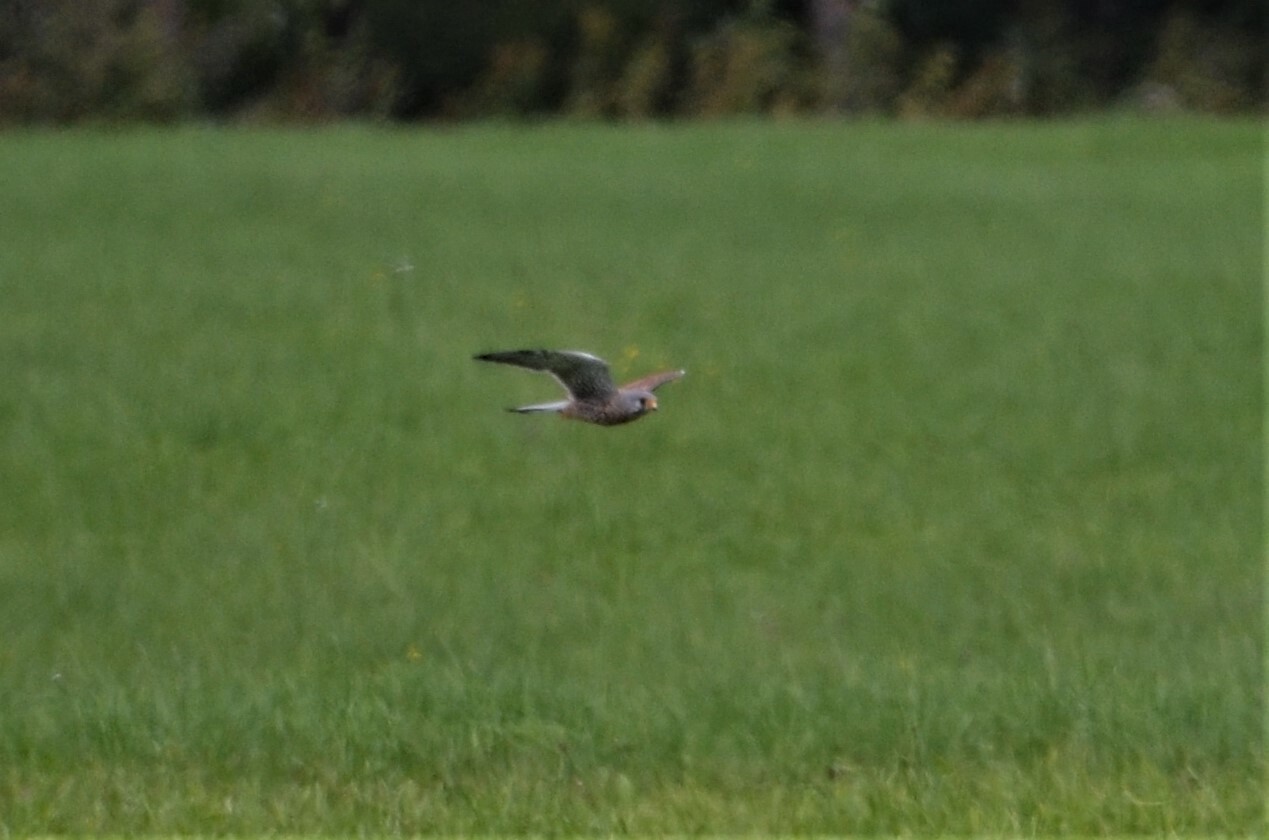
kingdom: Animalia
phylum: Chordata
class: Aves
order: Falconiformes
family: Falconidae
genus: Falco
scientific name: Falco tinnunculus
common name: Common kestrel
